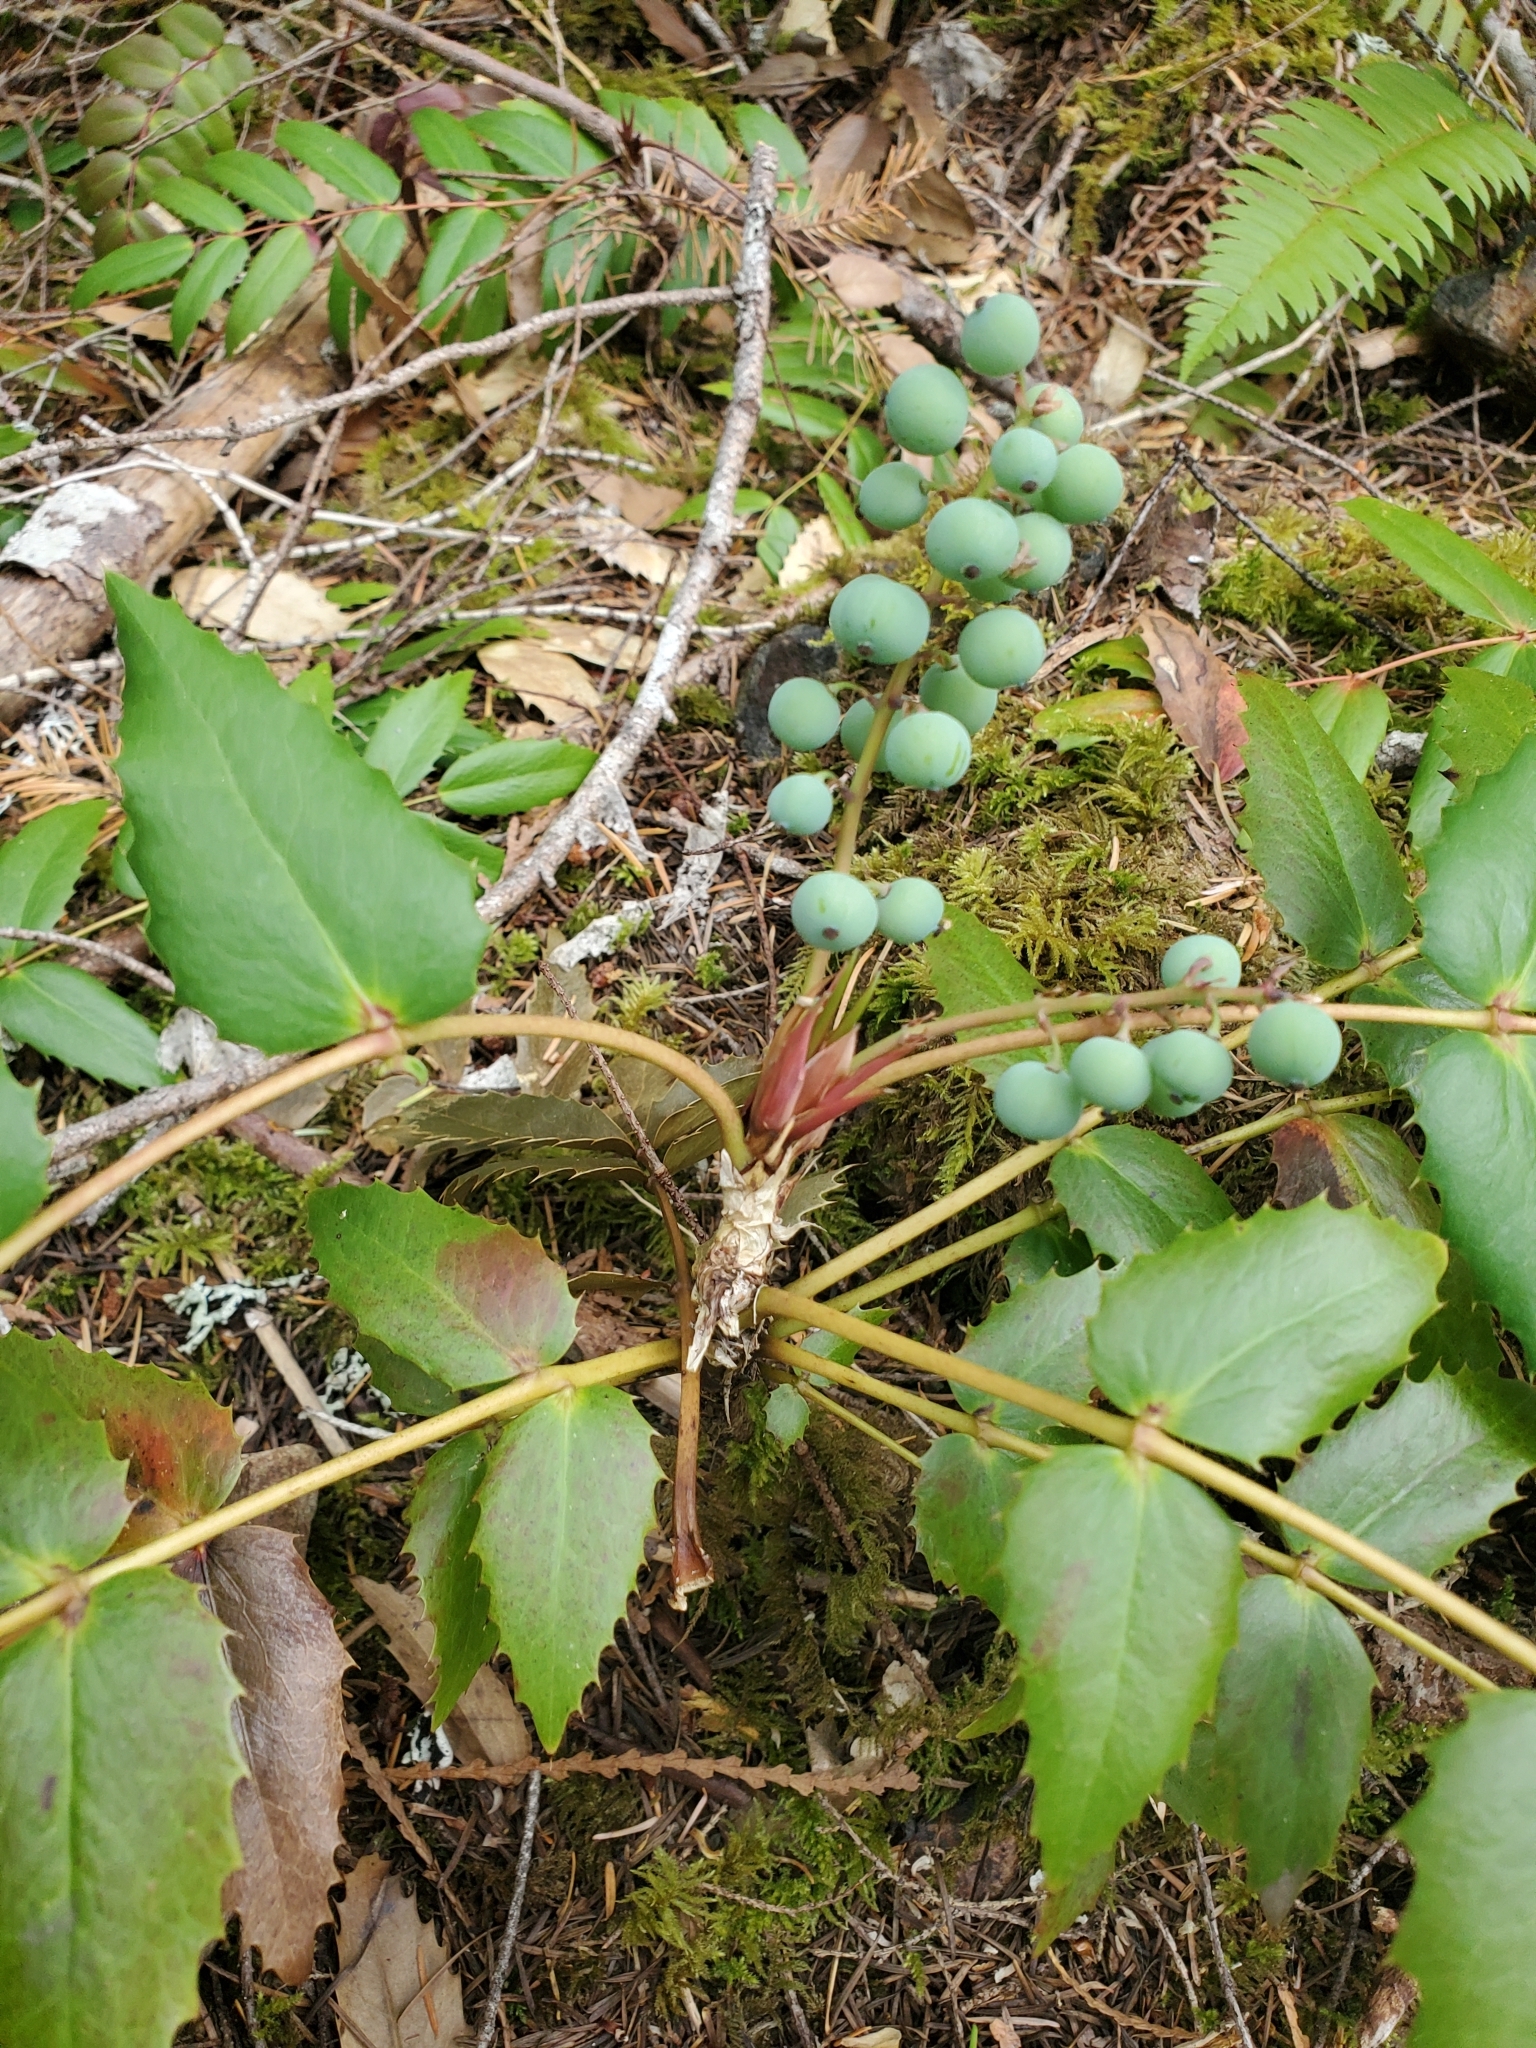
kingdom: Plantae
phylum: Tracheophyta
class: Magnoliopsida
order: Ranunculales
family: Berberidaceae
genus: Mahonia
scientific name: Mahonia nervosa
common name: Cascade oregon-grape
